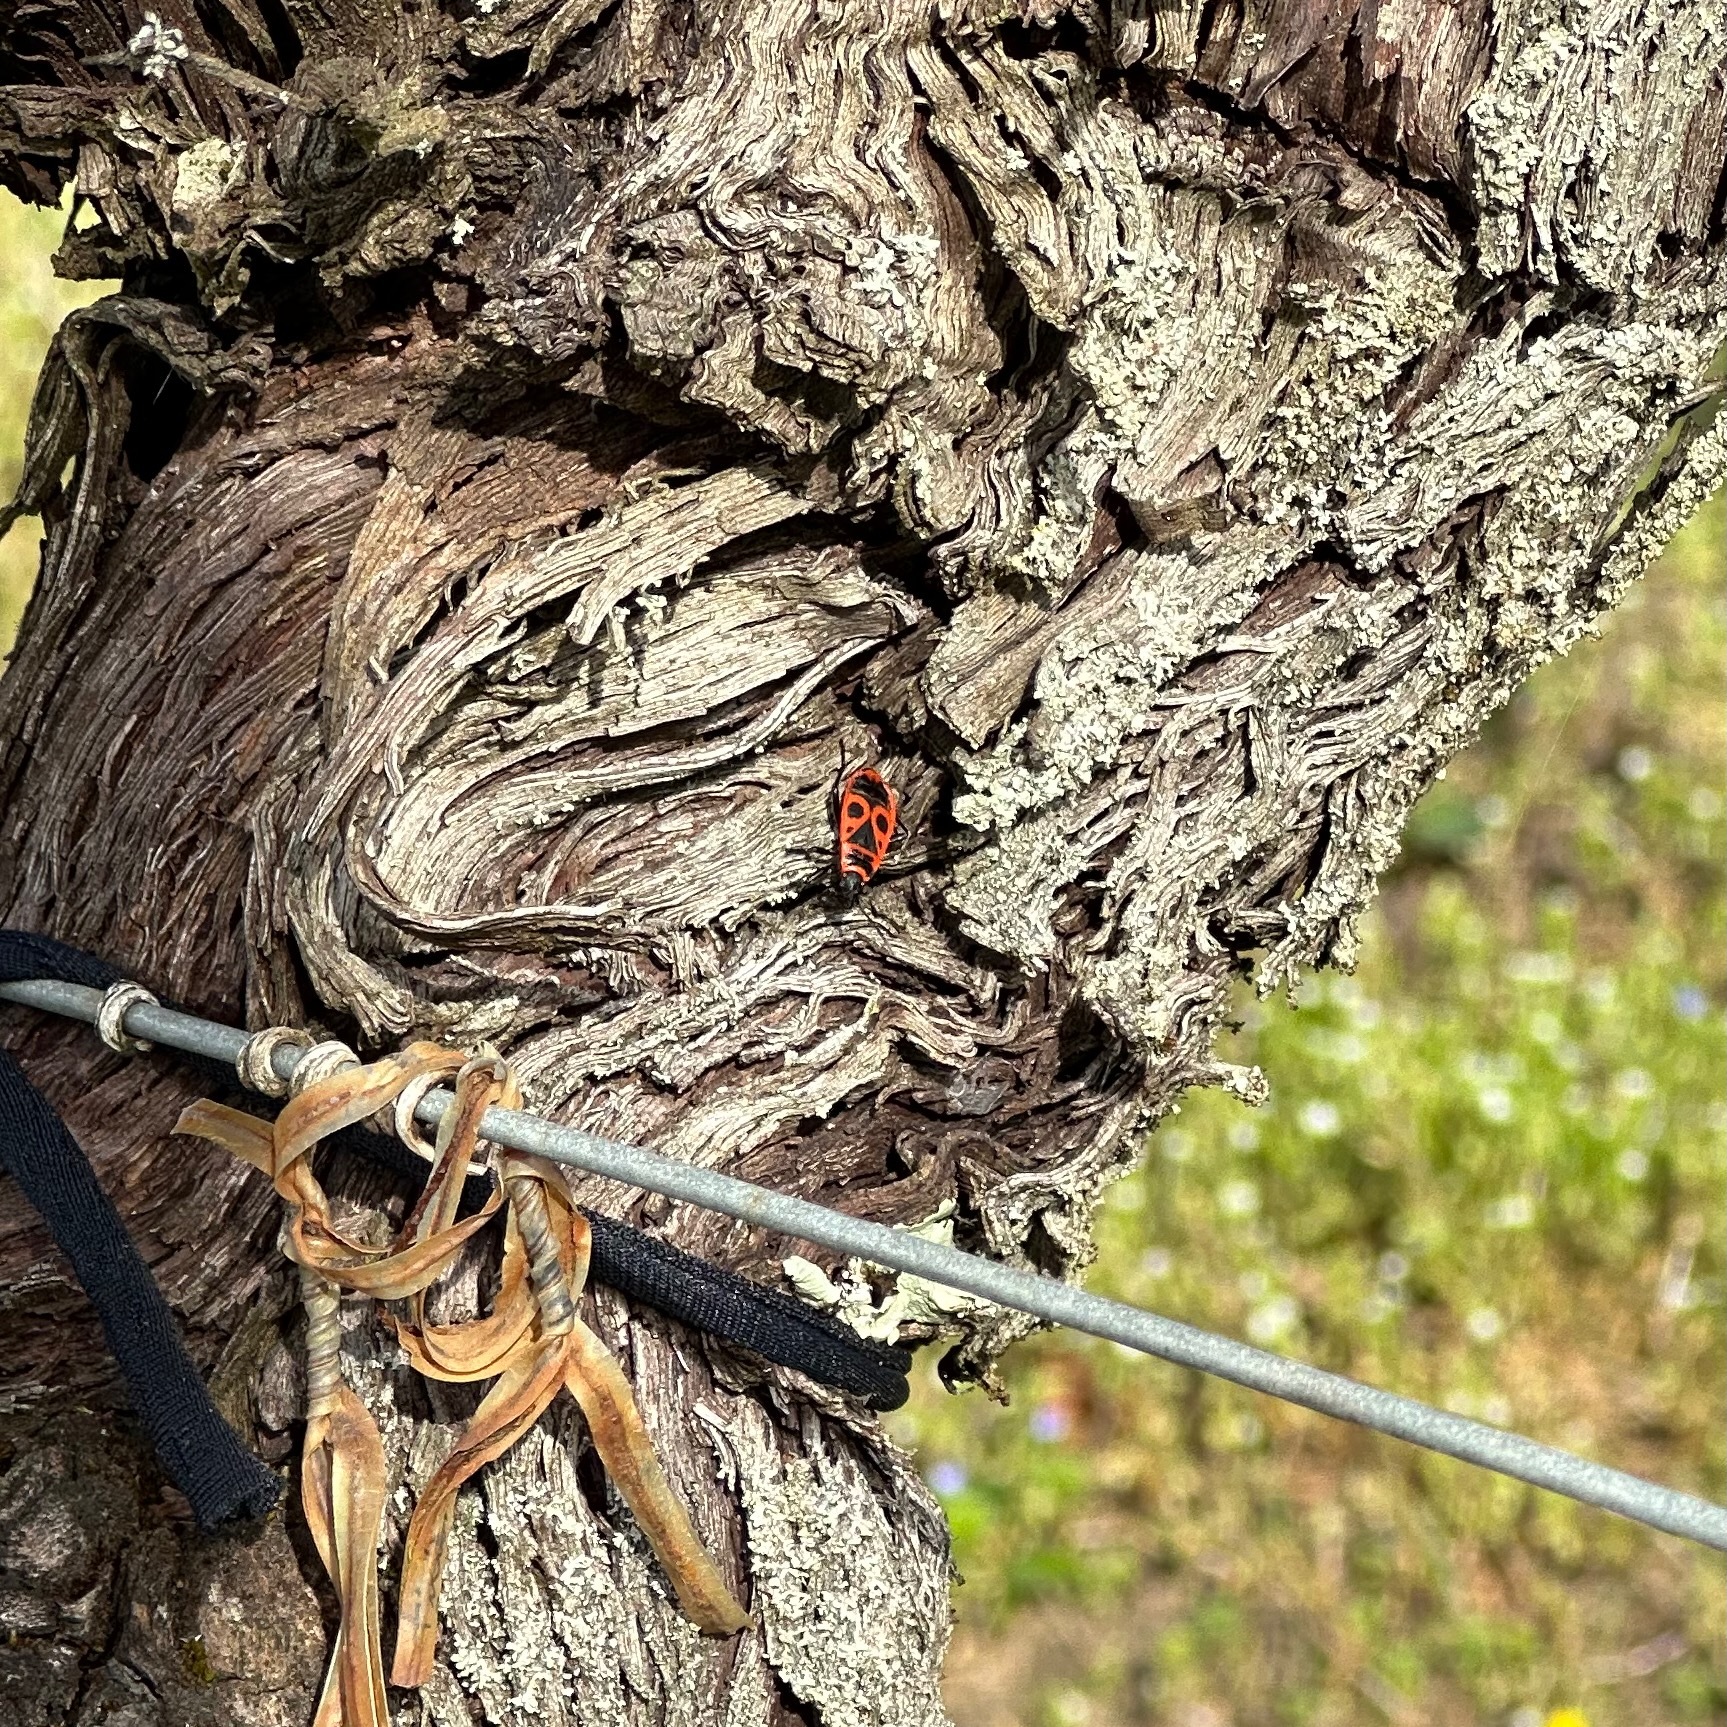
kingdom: Animalia
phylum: Arthropoda
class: Insecta
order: Hemiptera
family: Pyrrhocoridae
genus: Pyrrhocoris
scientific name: Pyrrhocoris apterus
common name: Firebug
